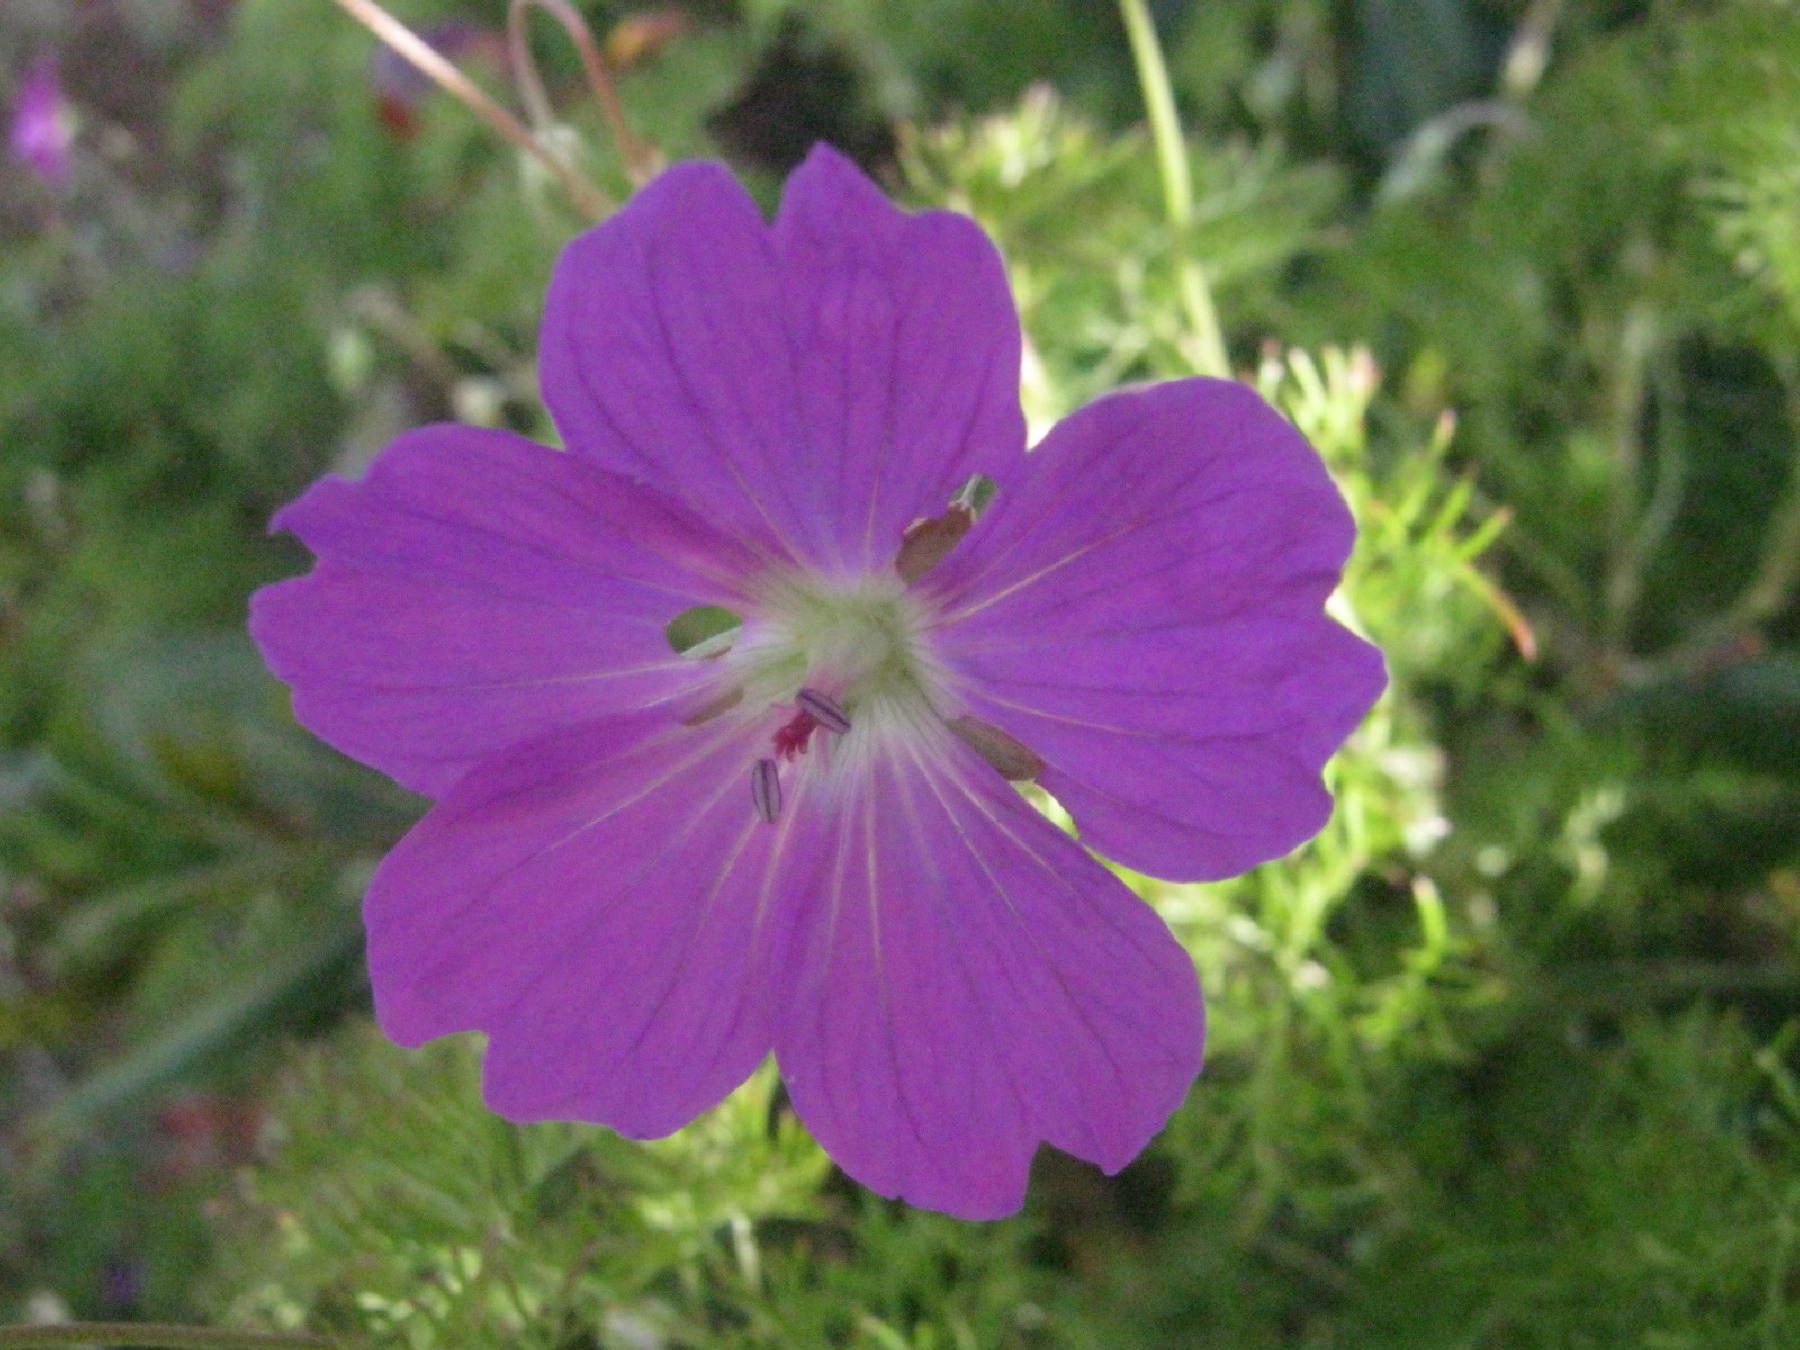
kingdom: Plantae
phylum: Tracheophyta
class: Magnoliopsida
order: Geraniales
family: Geraniaceae
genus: Geranium
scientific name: Geranium incanum
